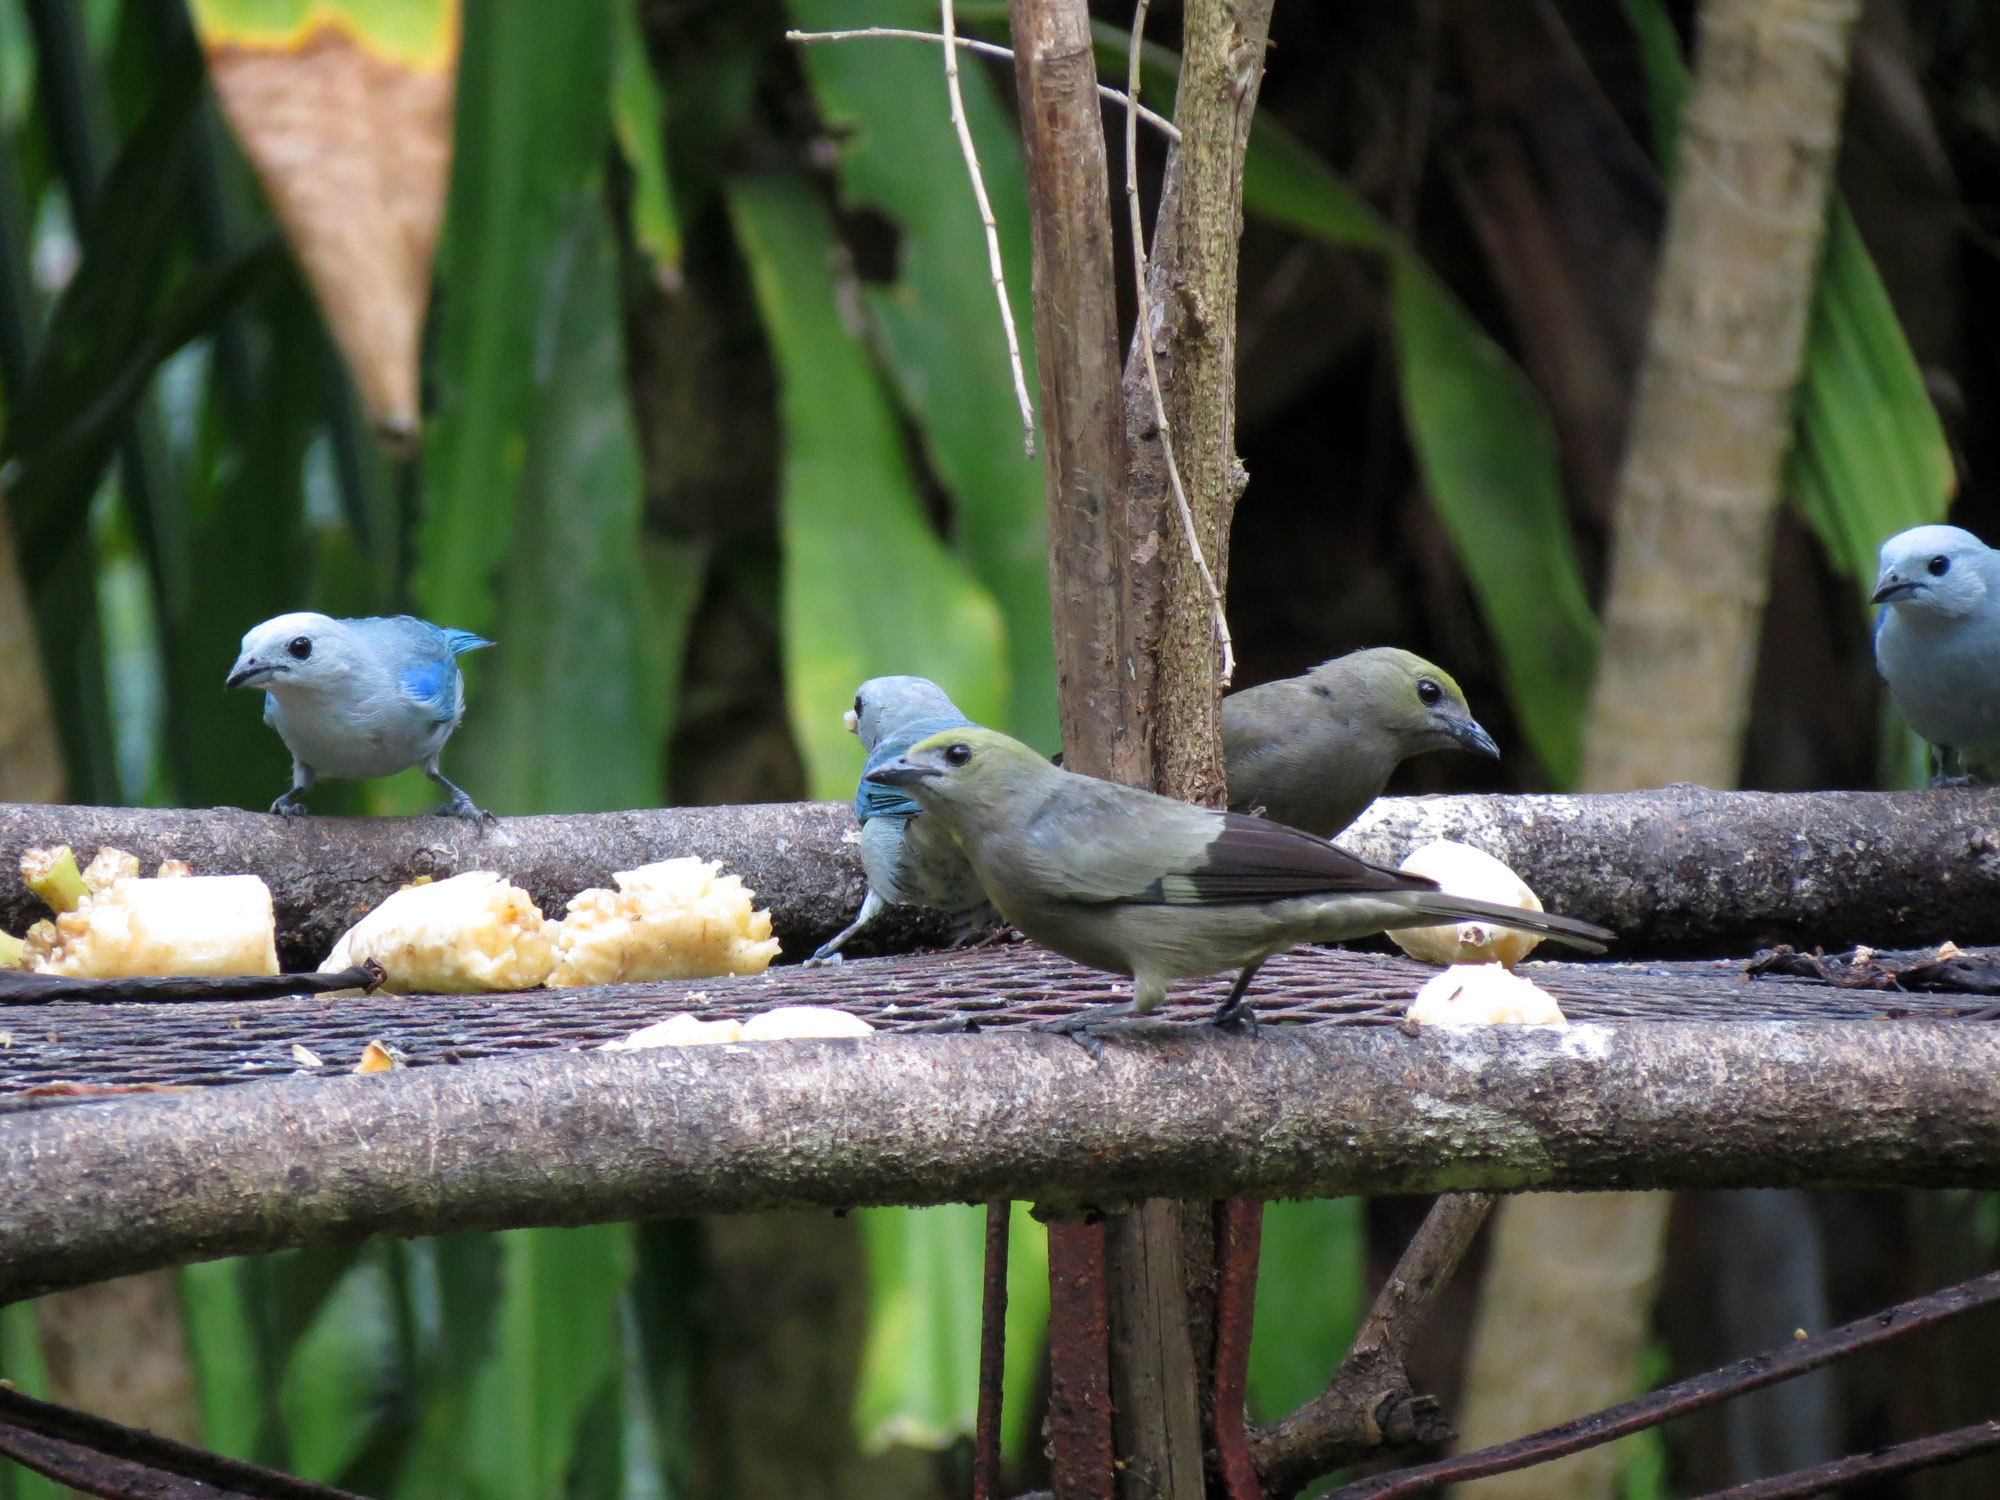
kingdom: Animalia
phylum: Chordata
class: Aves
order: Passeriformes
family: Thraupidae
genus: Thraupis
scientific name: Thraupis episcopus
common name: Blue-grey tanager
